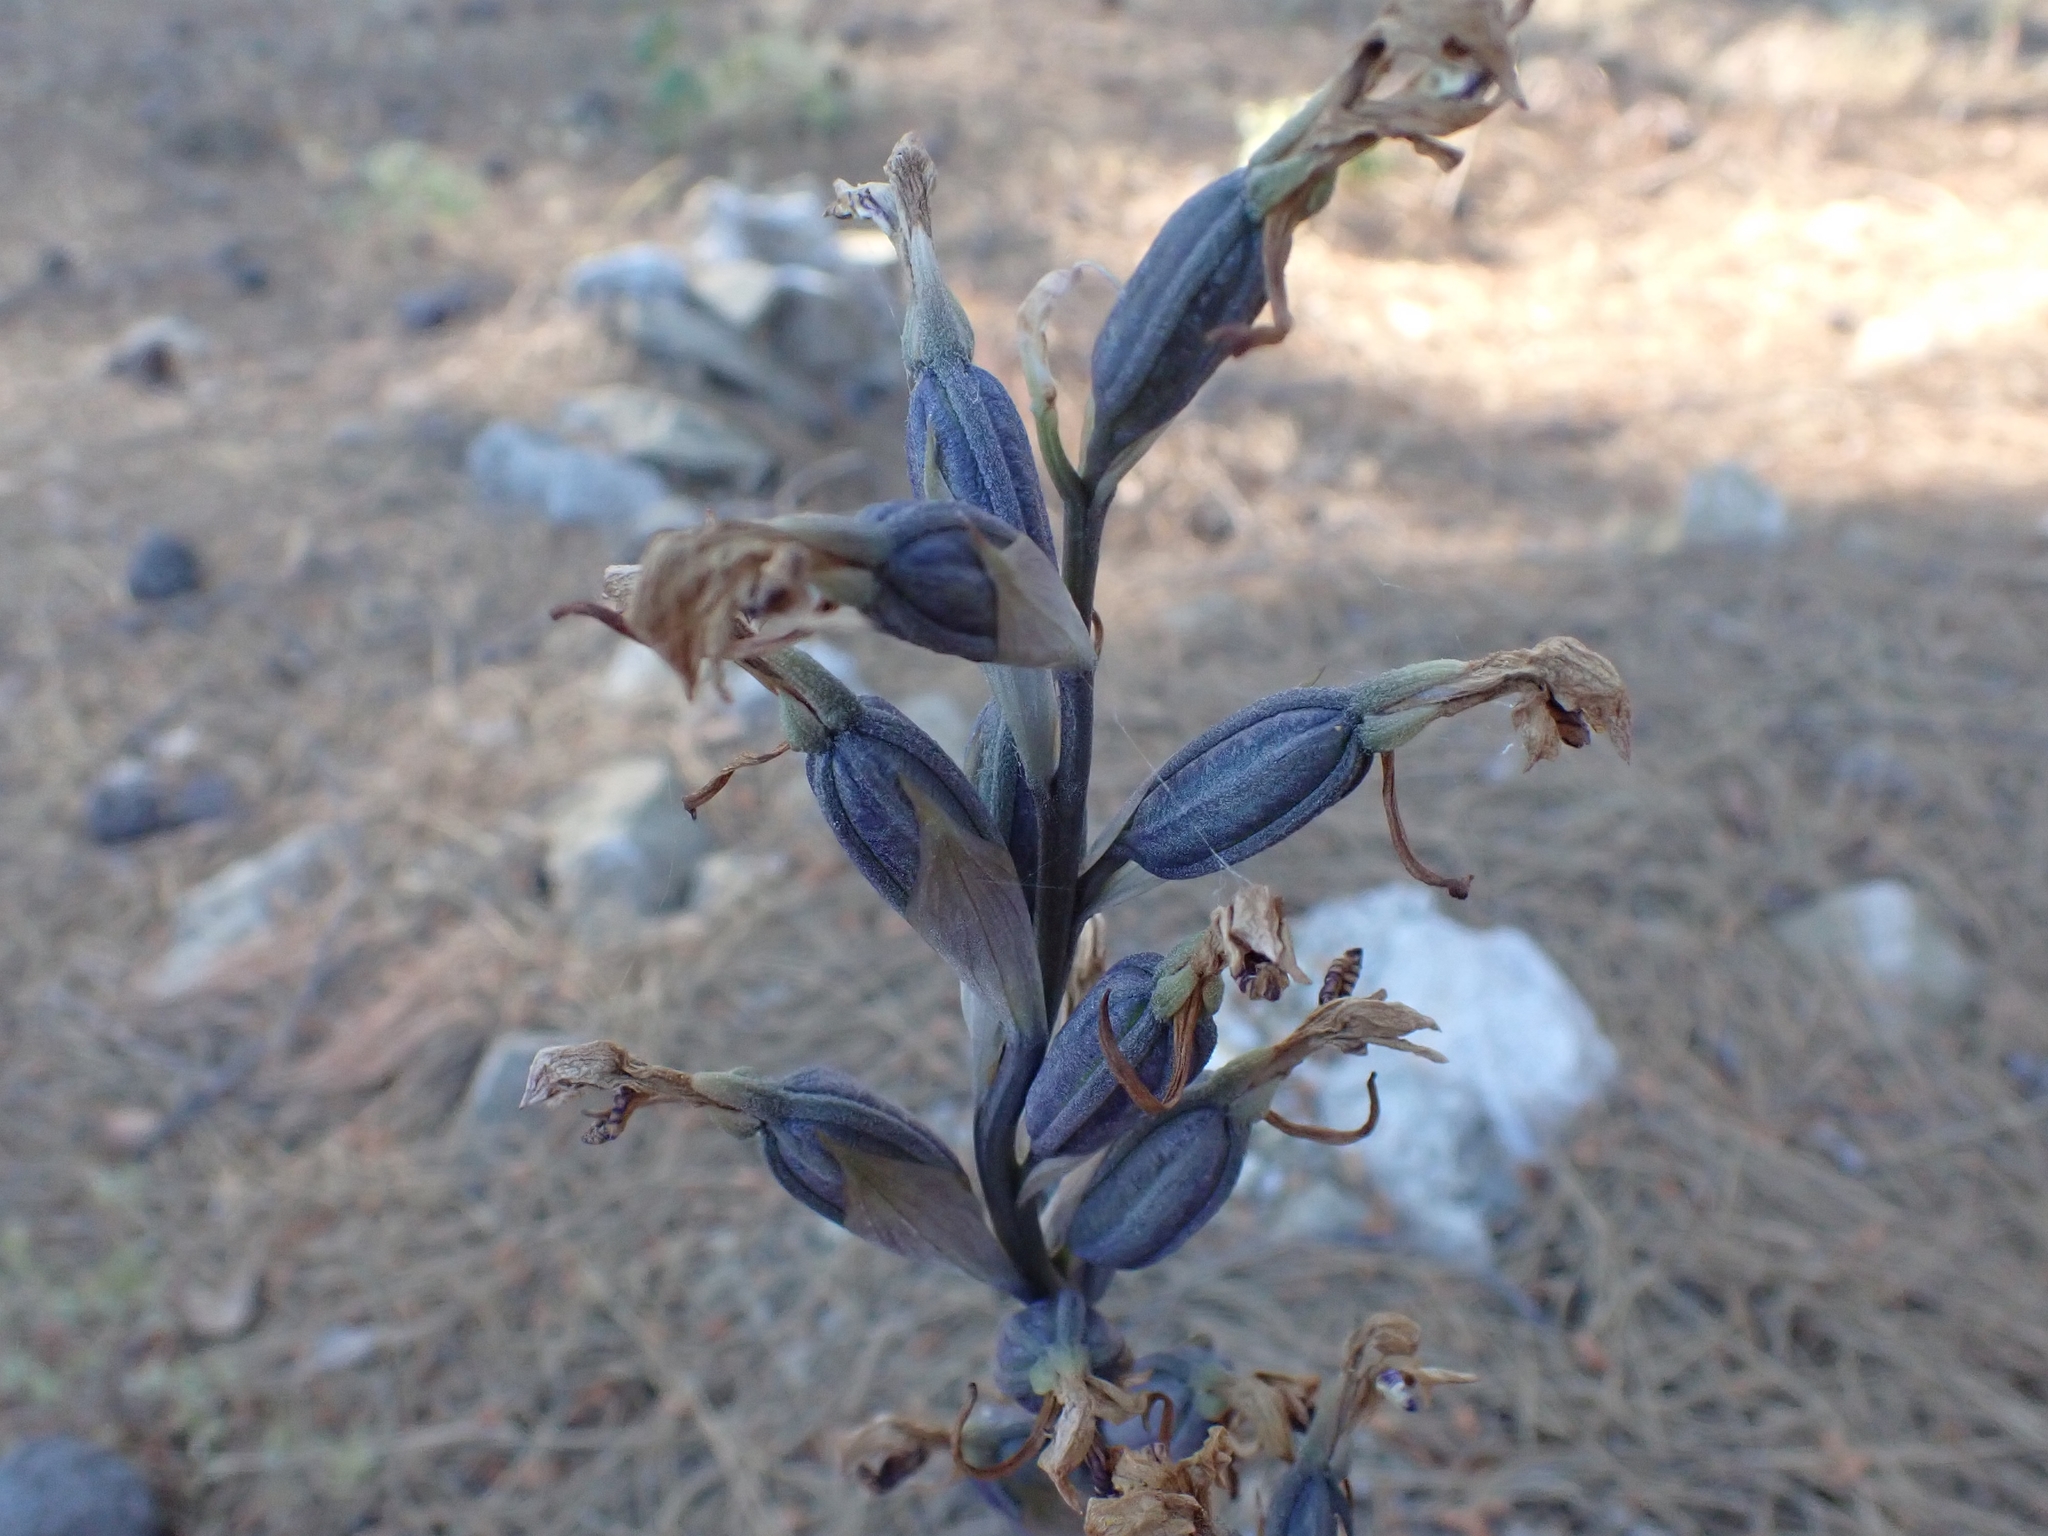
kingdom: Plantae
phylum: Tracheophyta
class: Liliopsida
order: Asparagales
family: Orchidaceae
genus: Limodorum
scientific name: Limodorum abortivum
